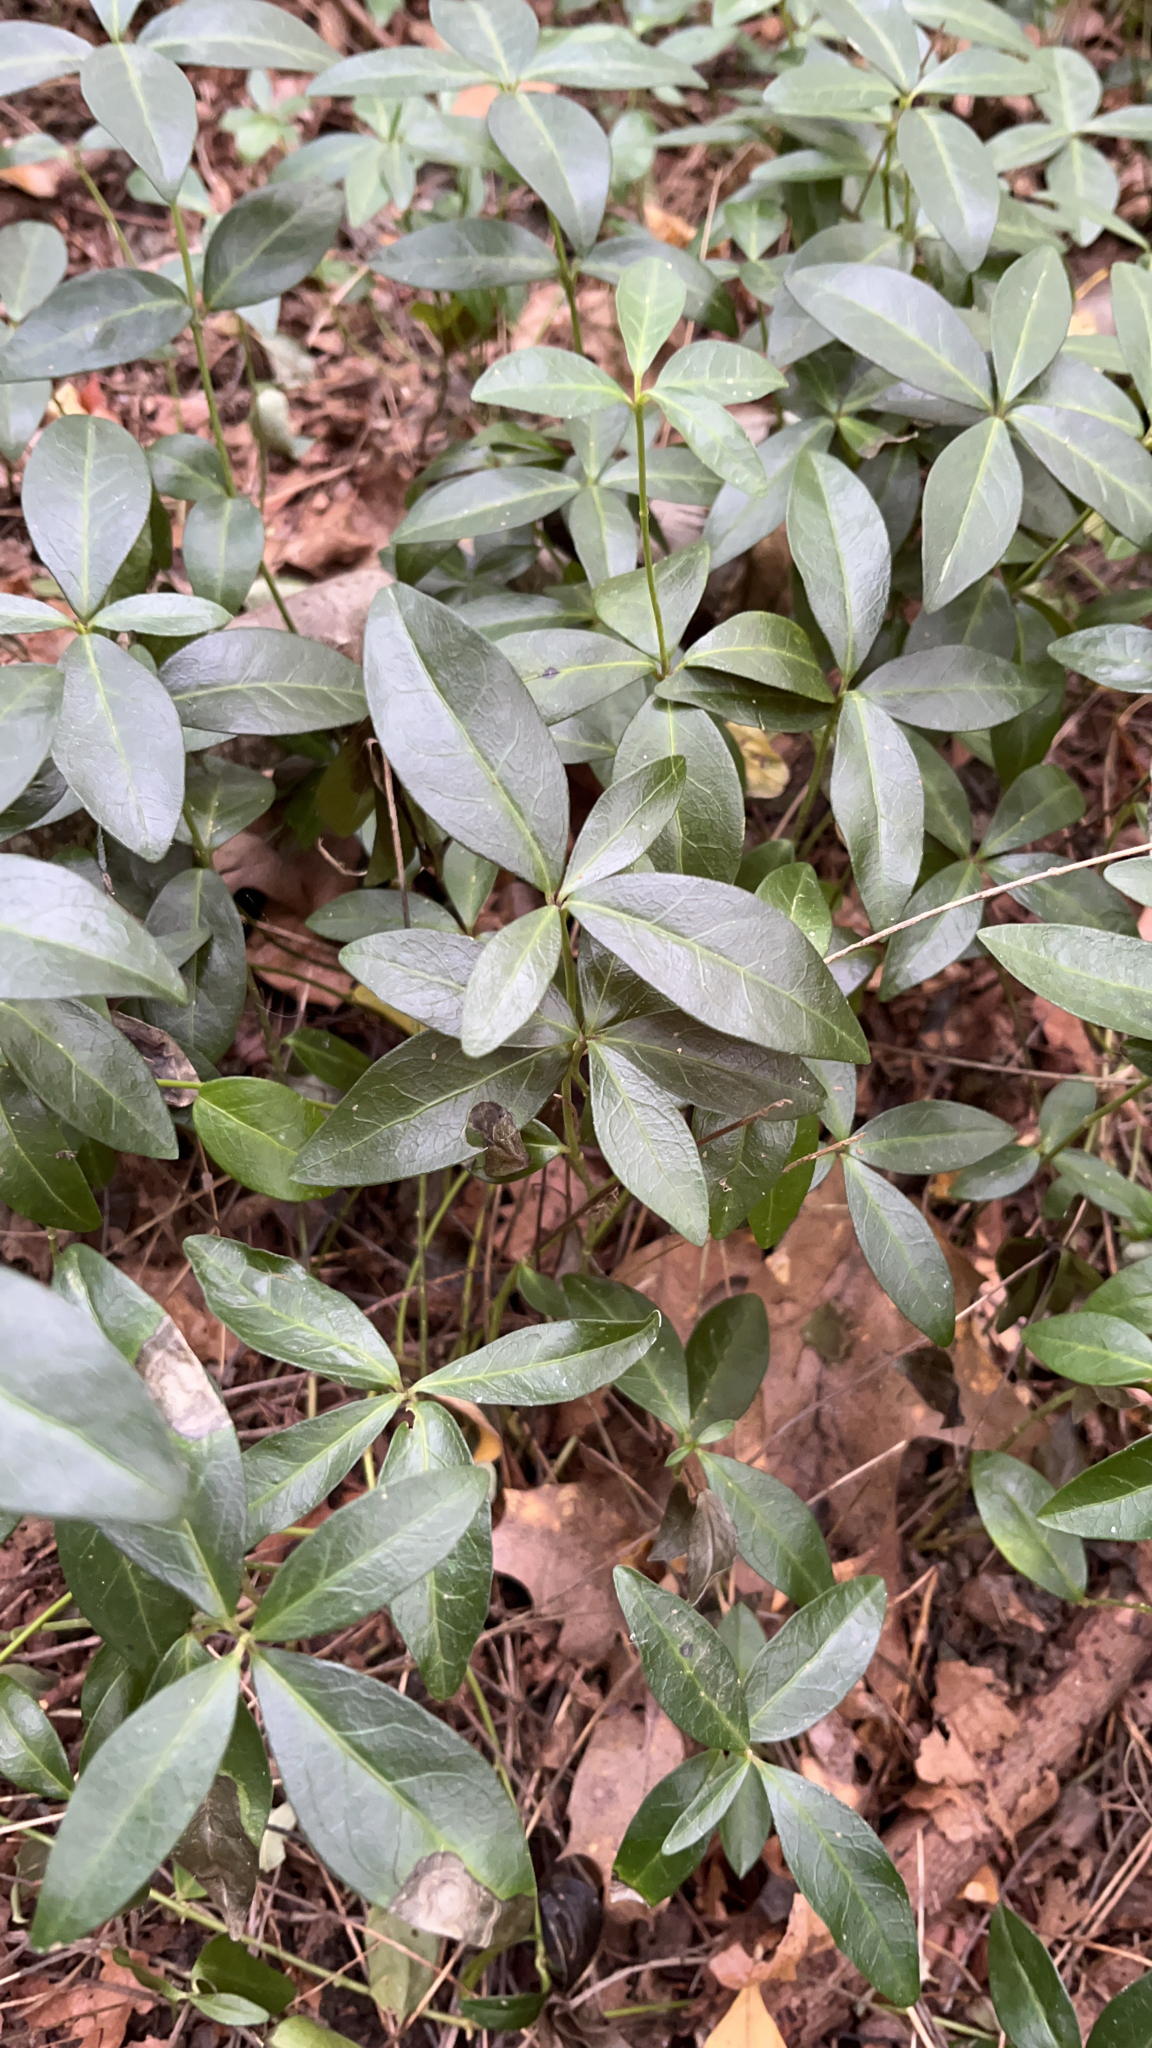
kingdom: Plantae
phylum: Tracheophyta
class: Magnoliopsida
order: Gentianales
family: Apocynaceae
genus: Vinca
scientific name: Vinca minor
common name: Lesser periwinkle
